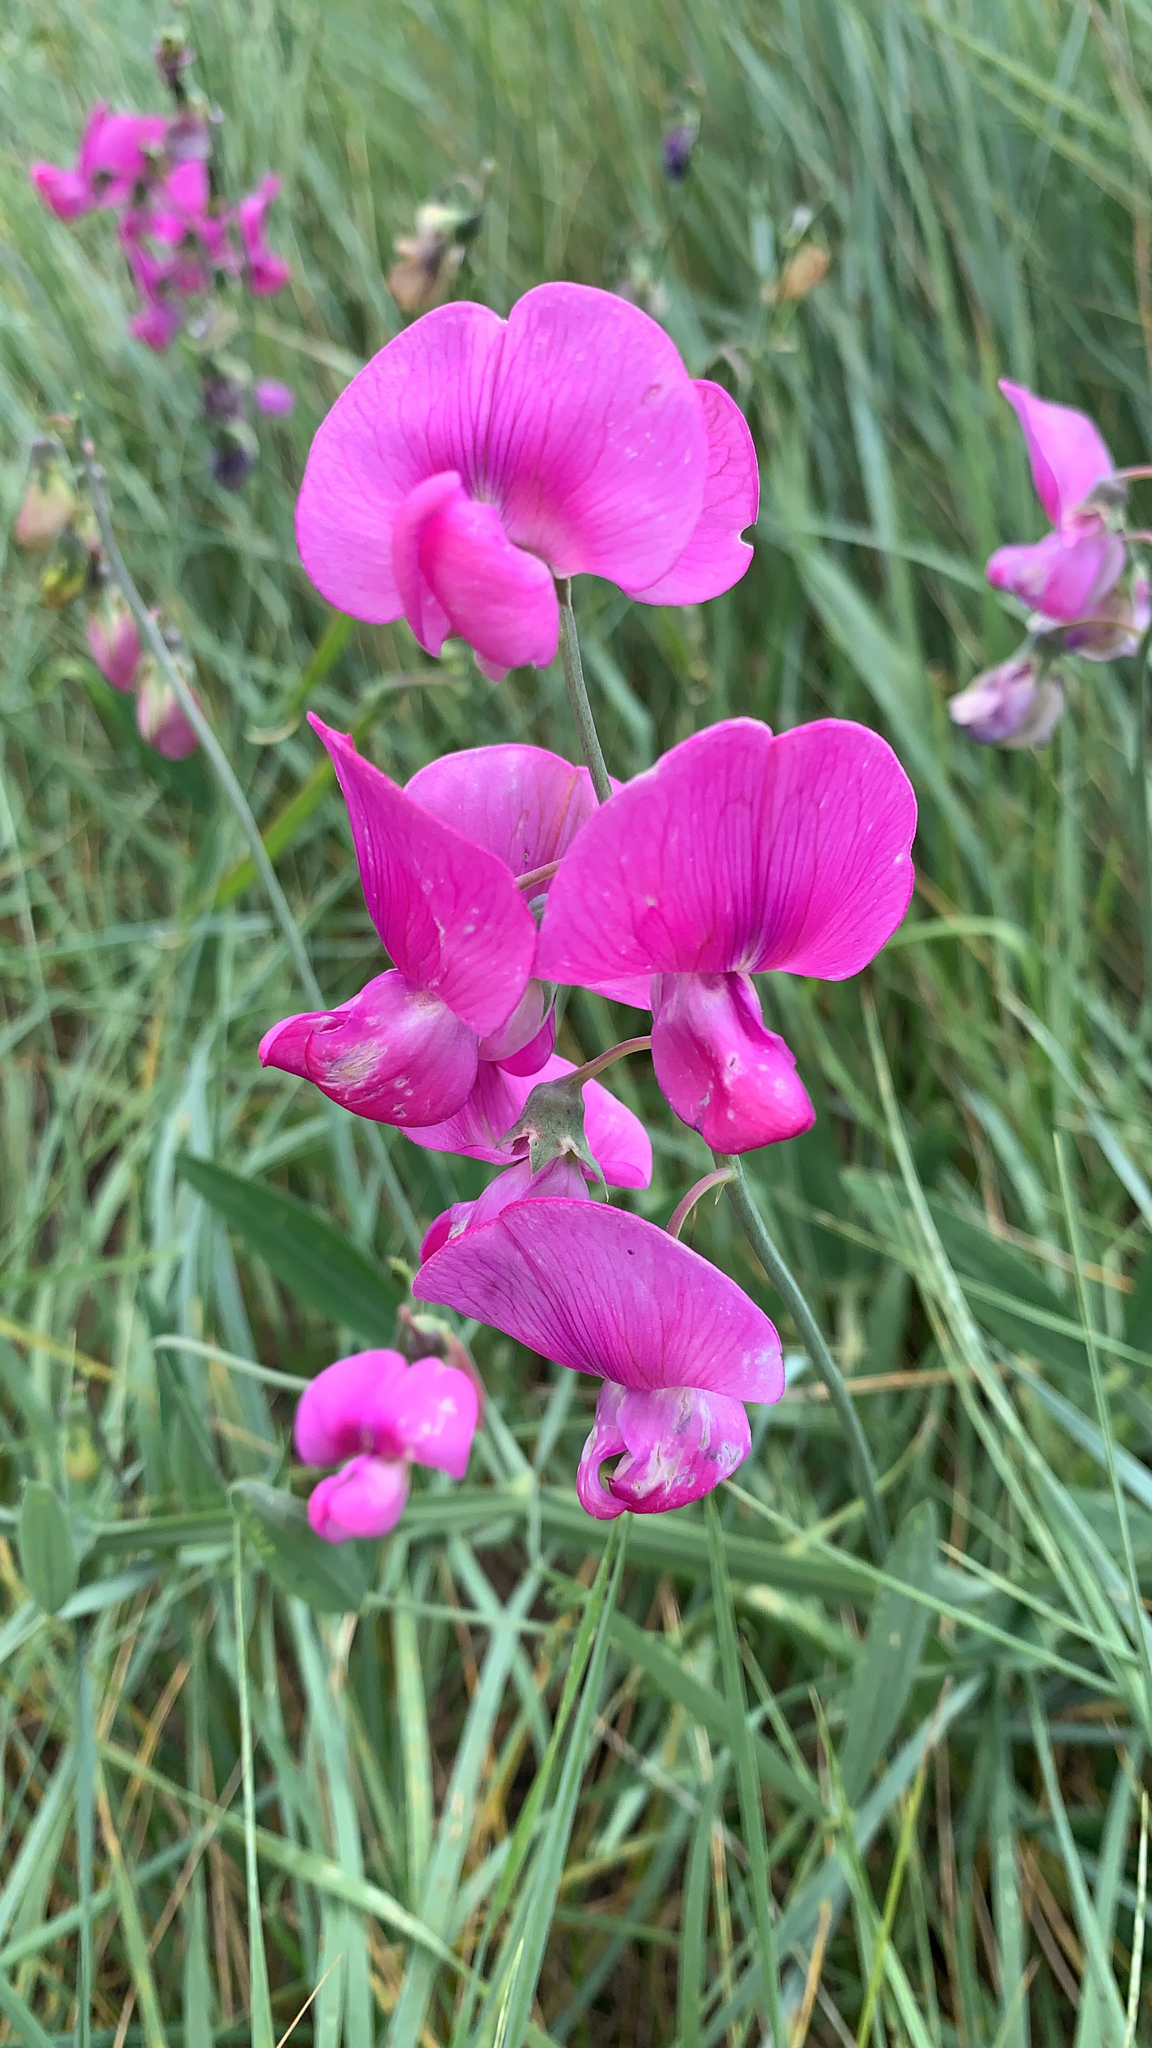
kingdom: Plantae
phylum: Tracheophyta
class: Magnoliopsida
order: Fabales
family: Fabaceae
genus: Lathyrus
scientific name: Lathyrus latifolius
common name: Perennial pea
